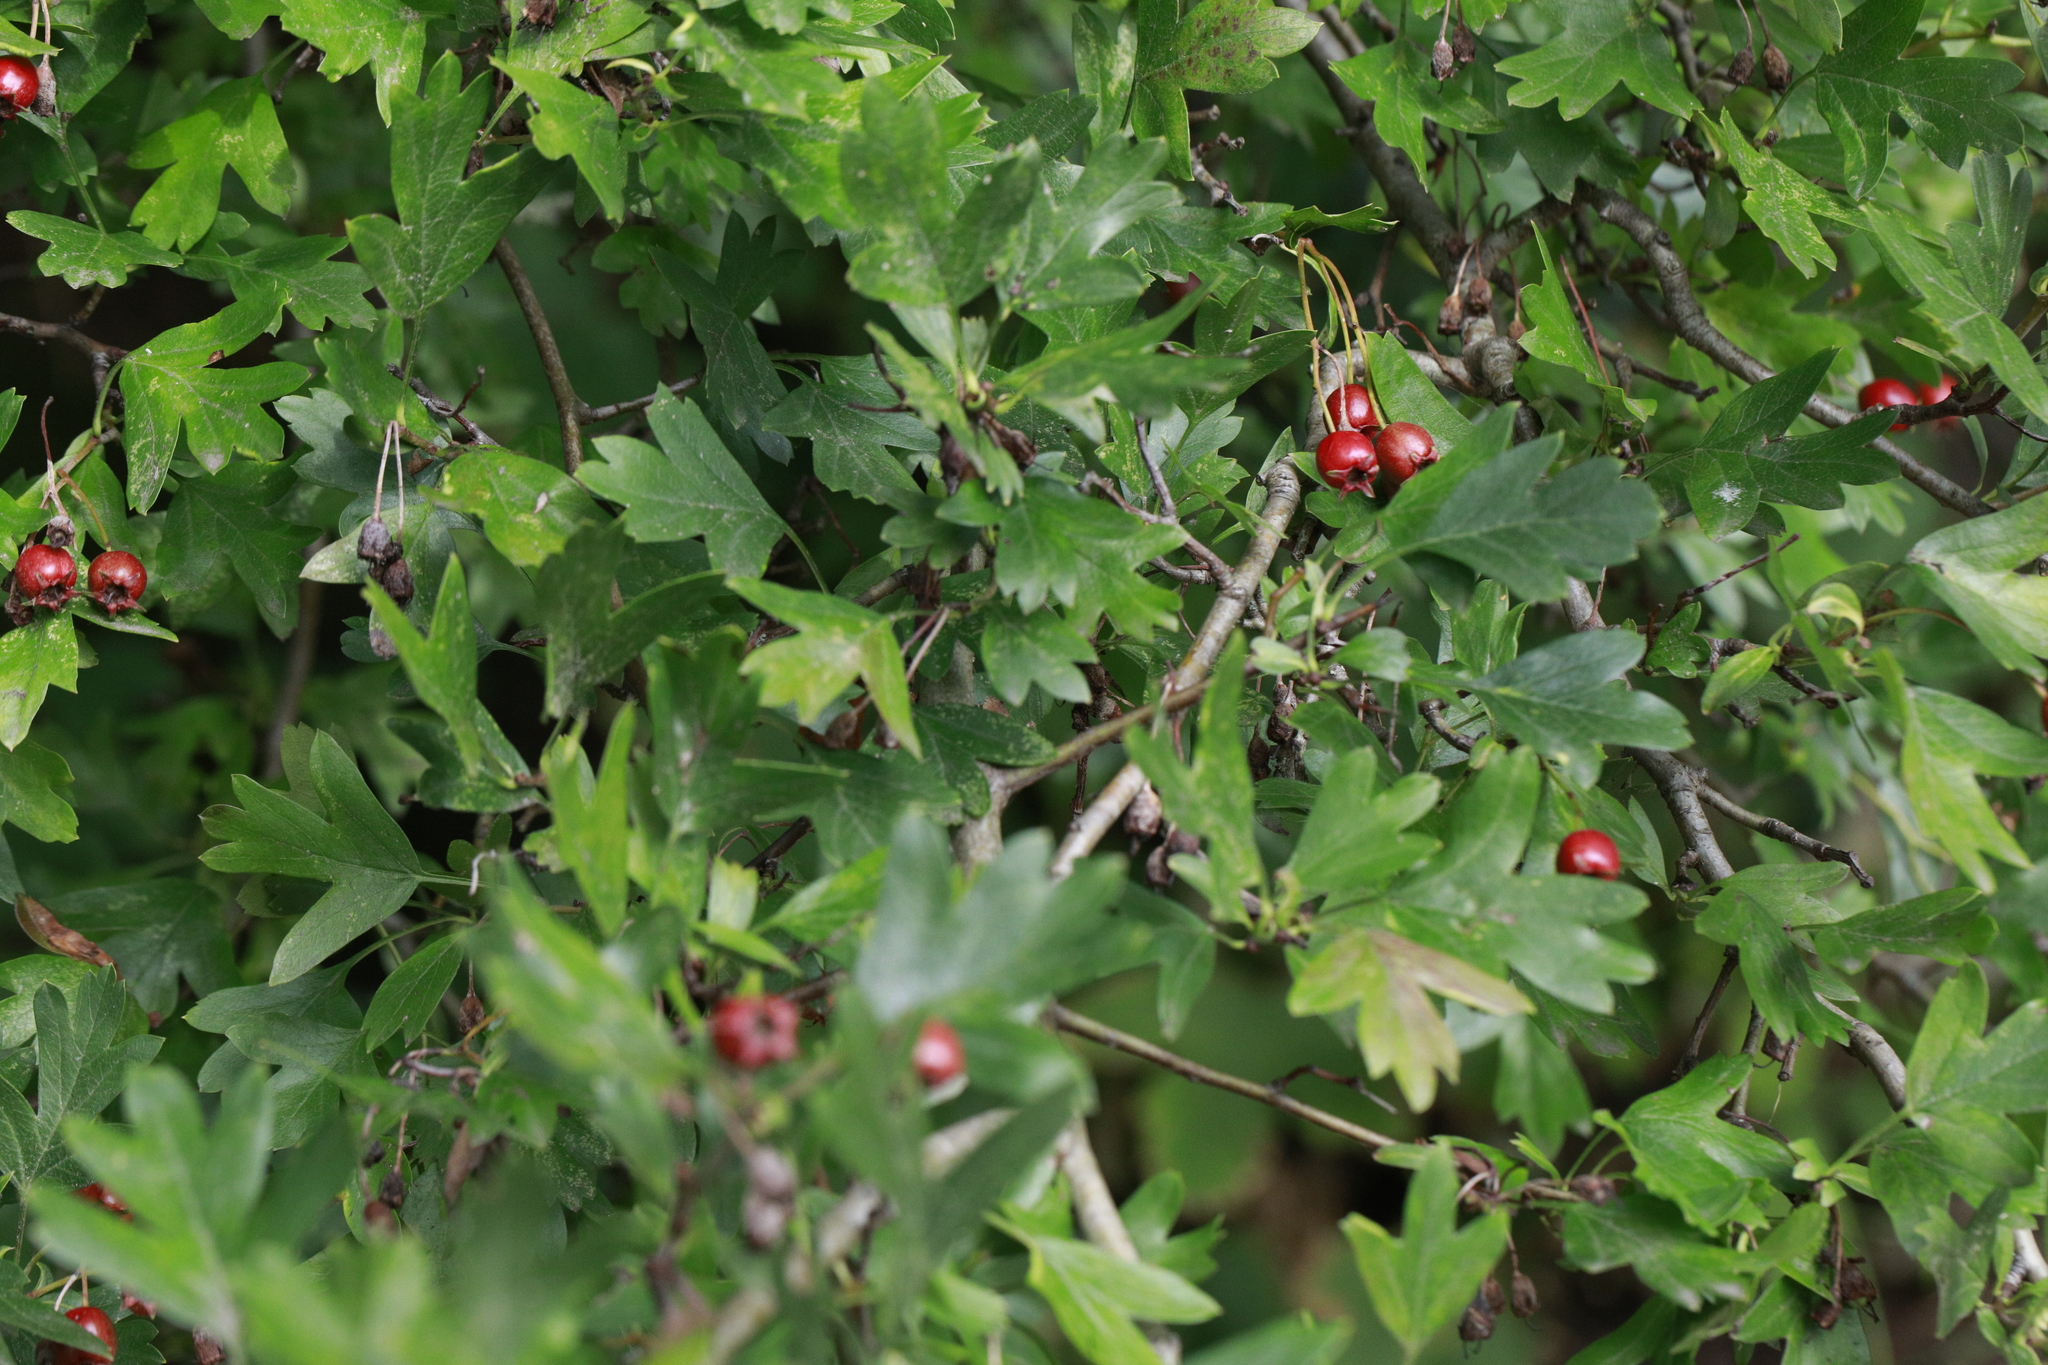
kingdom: Plantae
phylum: Tracheophyta
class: Magnoliopsida
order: Rosales
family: Rosaceae
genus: Crataegus
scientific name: Crataegus monogyna
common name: Hawthorn
